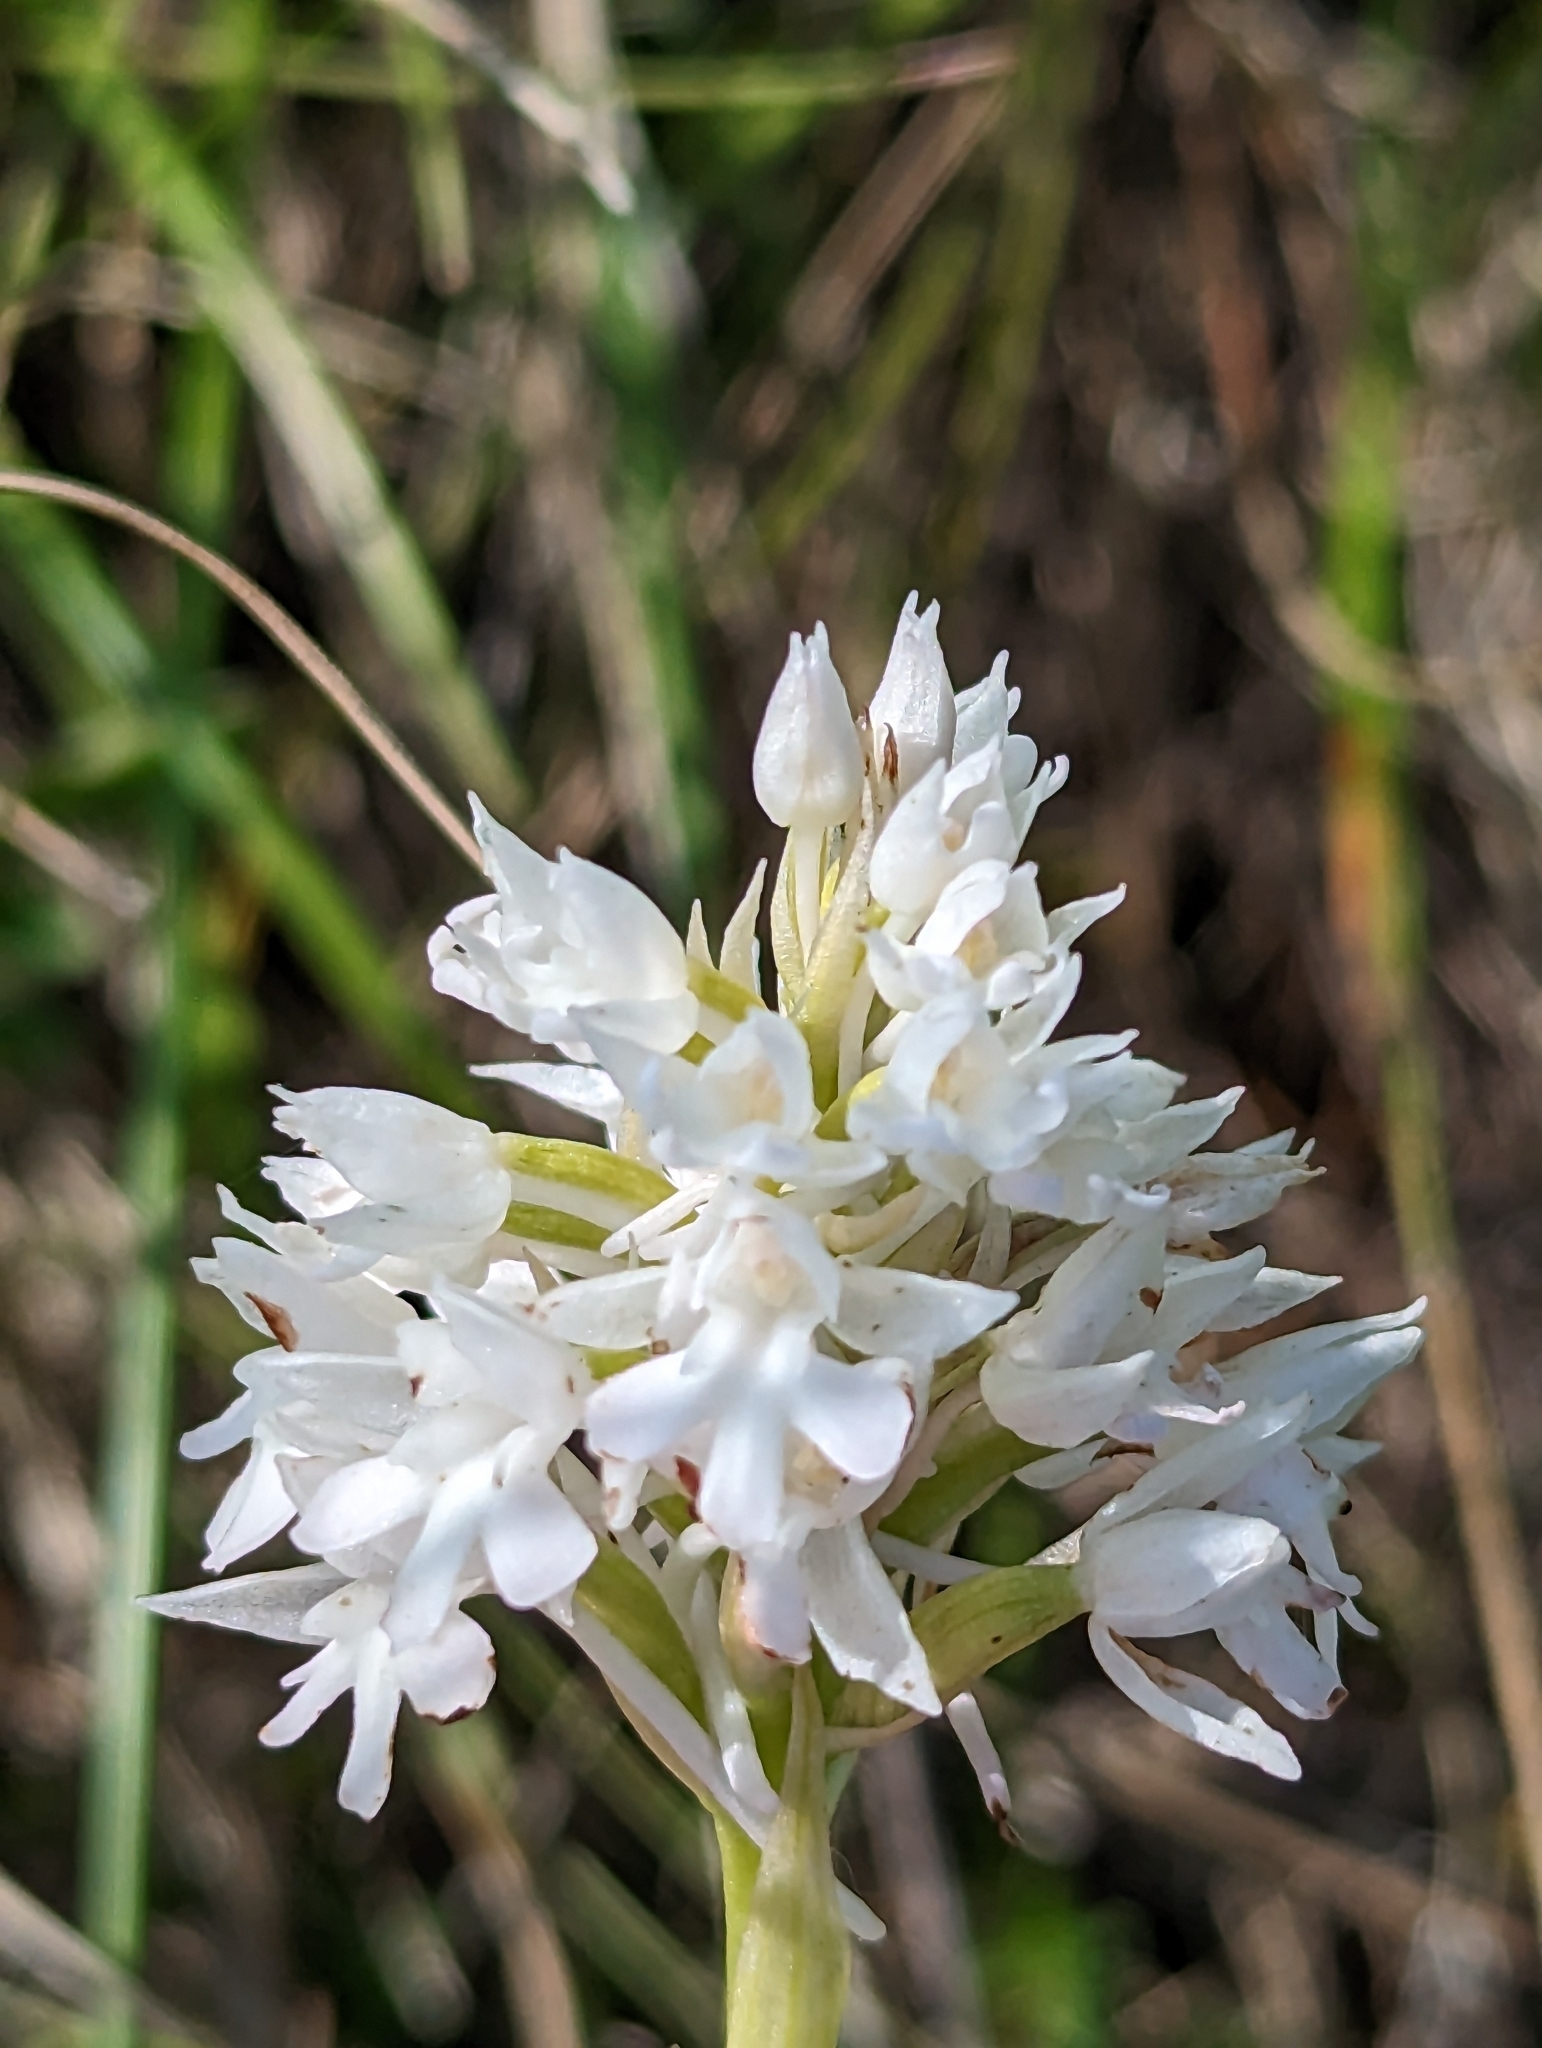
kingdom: Plantae
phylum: Tracheophyta
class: Liliopsida
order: Asparagales
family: Orchidaceae
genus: Anacamptis
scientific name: Anacamptis pyramidalis
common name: Pyramidal orchid
